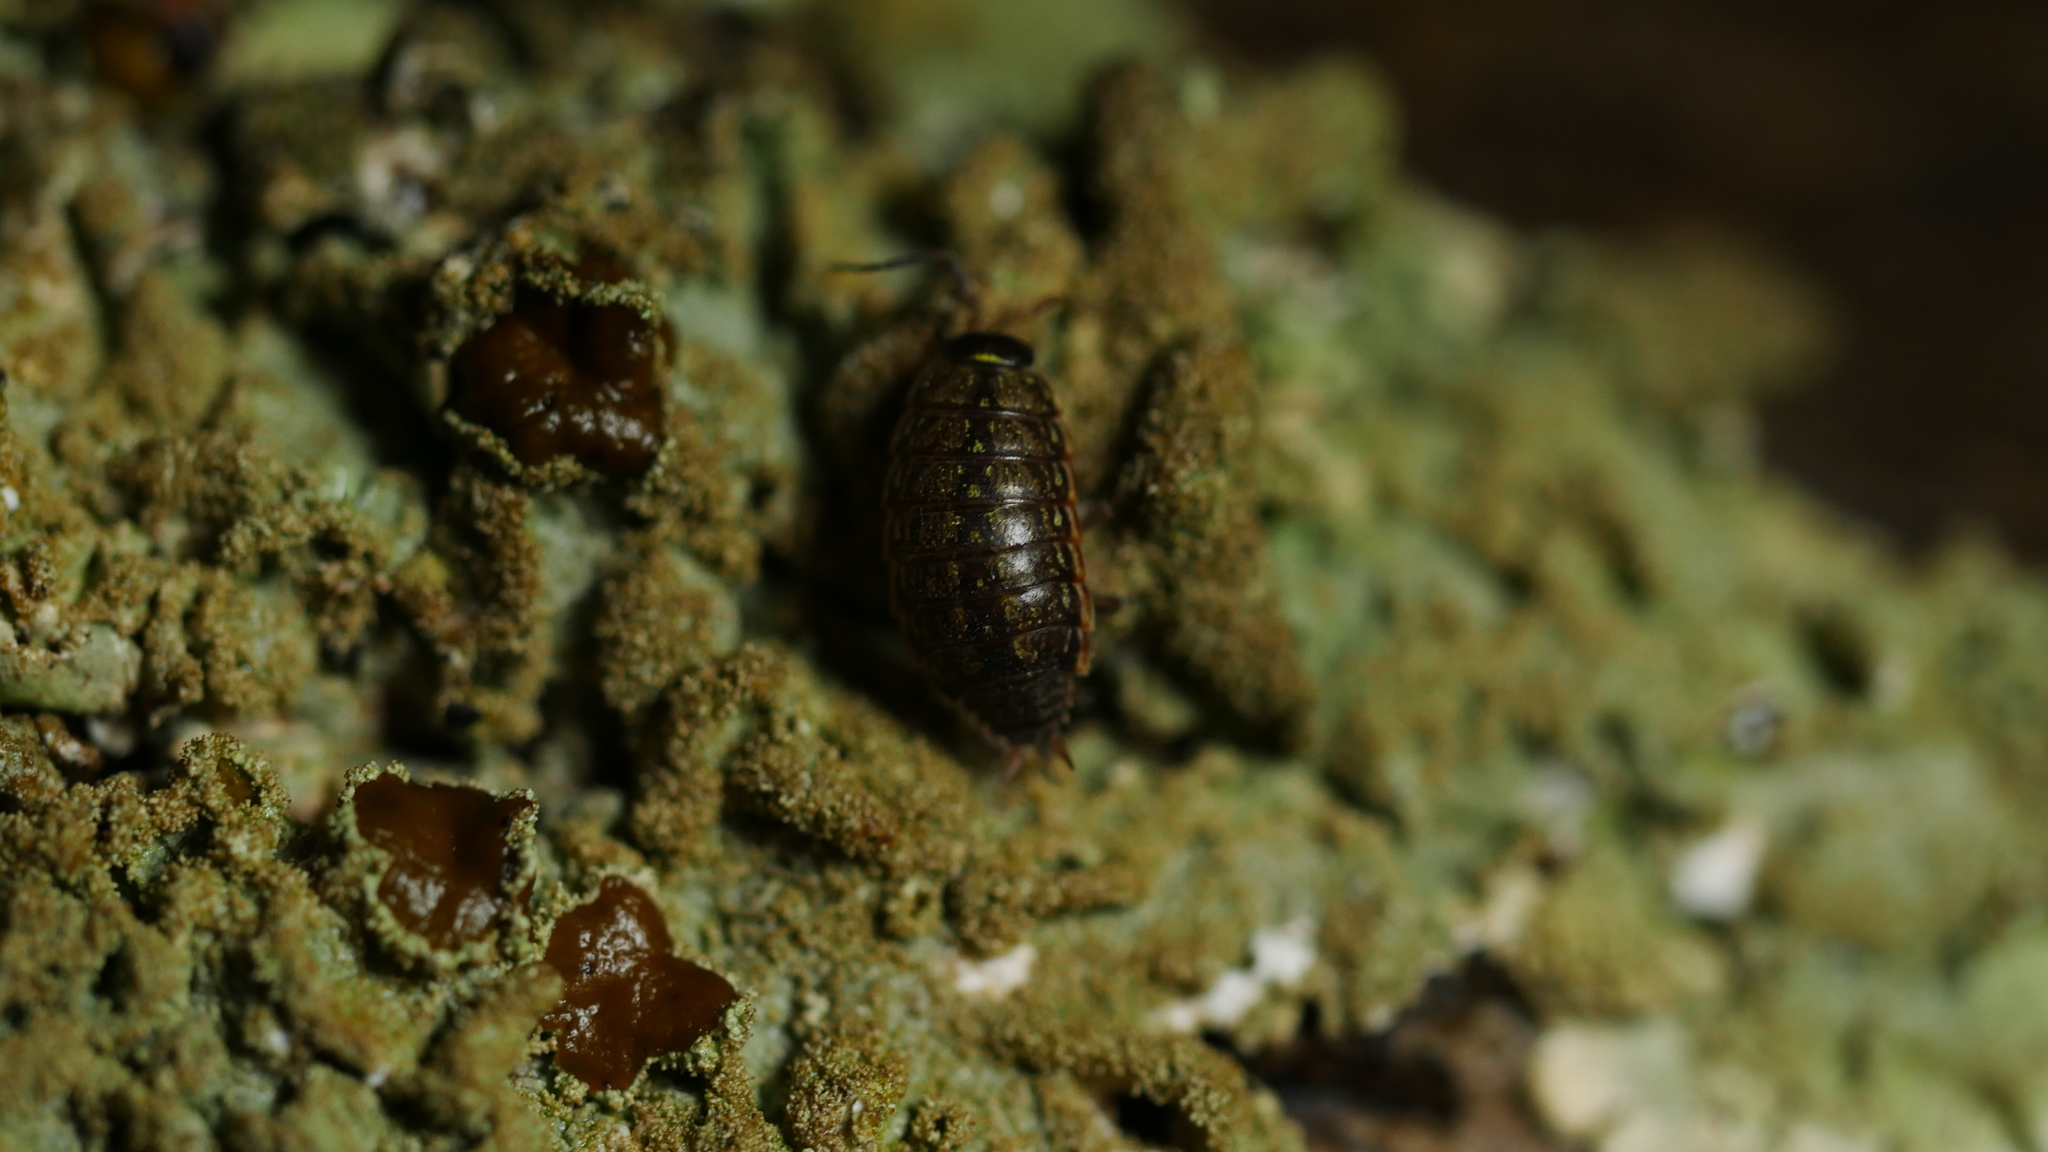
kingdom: Animalia
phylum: Arthropoda
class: Malacostraca
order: Isopoda
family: Philosciidae
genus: Philoscia
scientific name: Philoscia muscorum
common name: Common striped woodlouse
